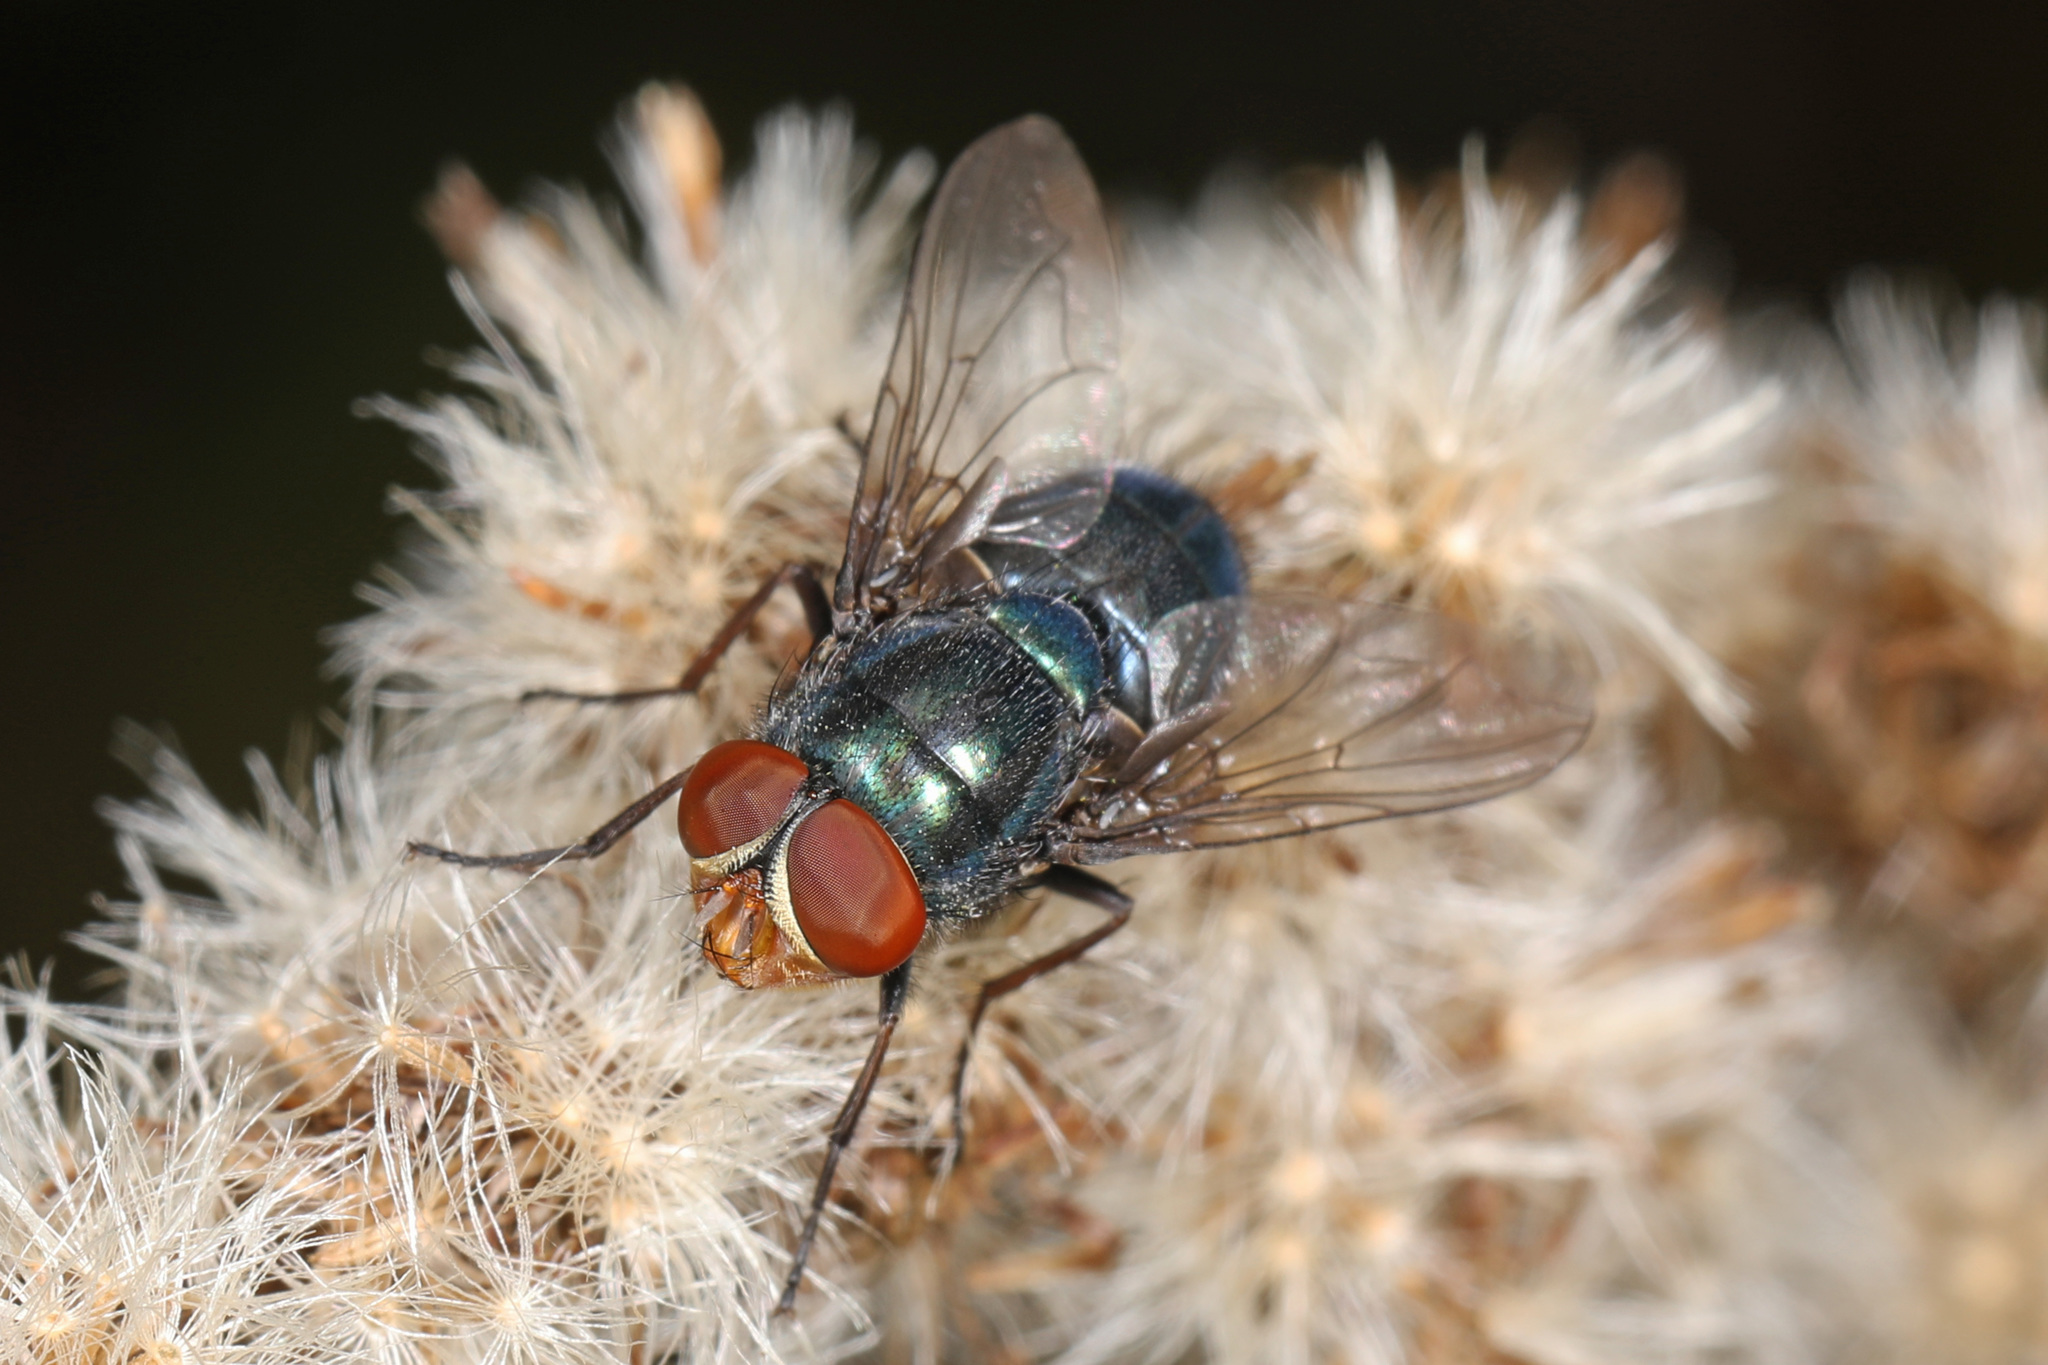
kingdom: Animalia
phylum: Arthropoda
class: Insecta
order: Diptera
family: Calliphoridae
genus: Cochliomyia
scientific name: Cochliomyia macellaria
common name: Secondary screwworm
